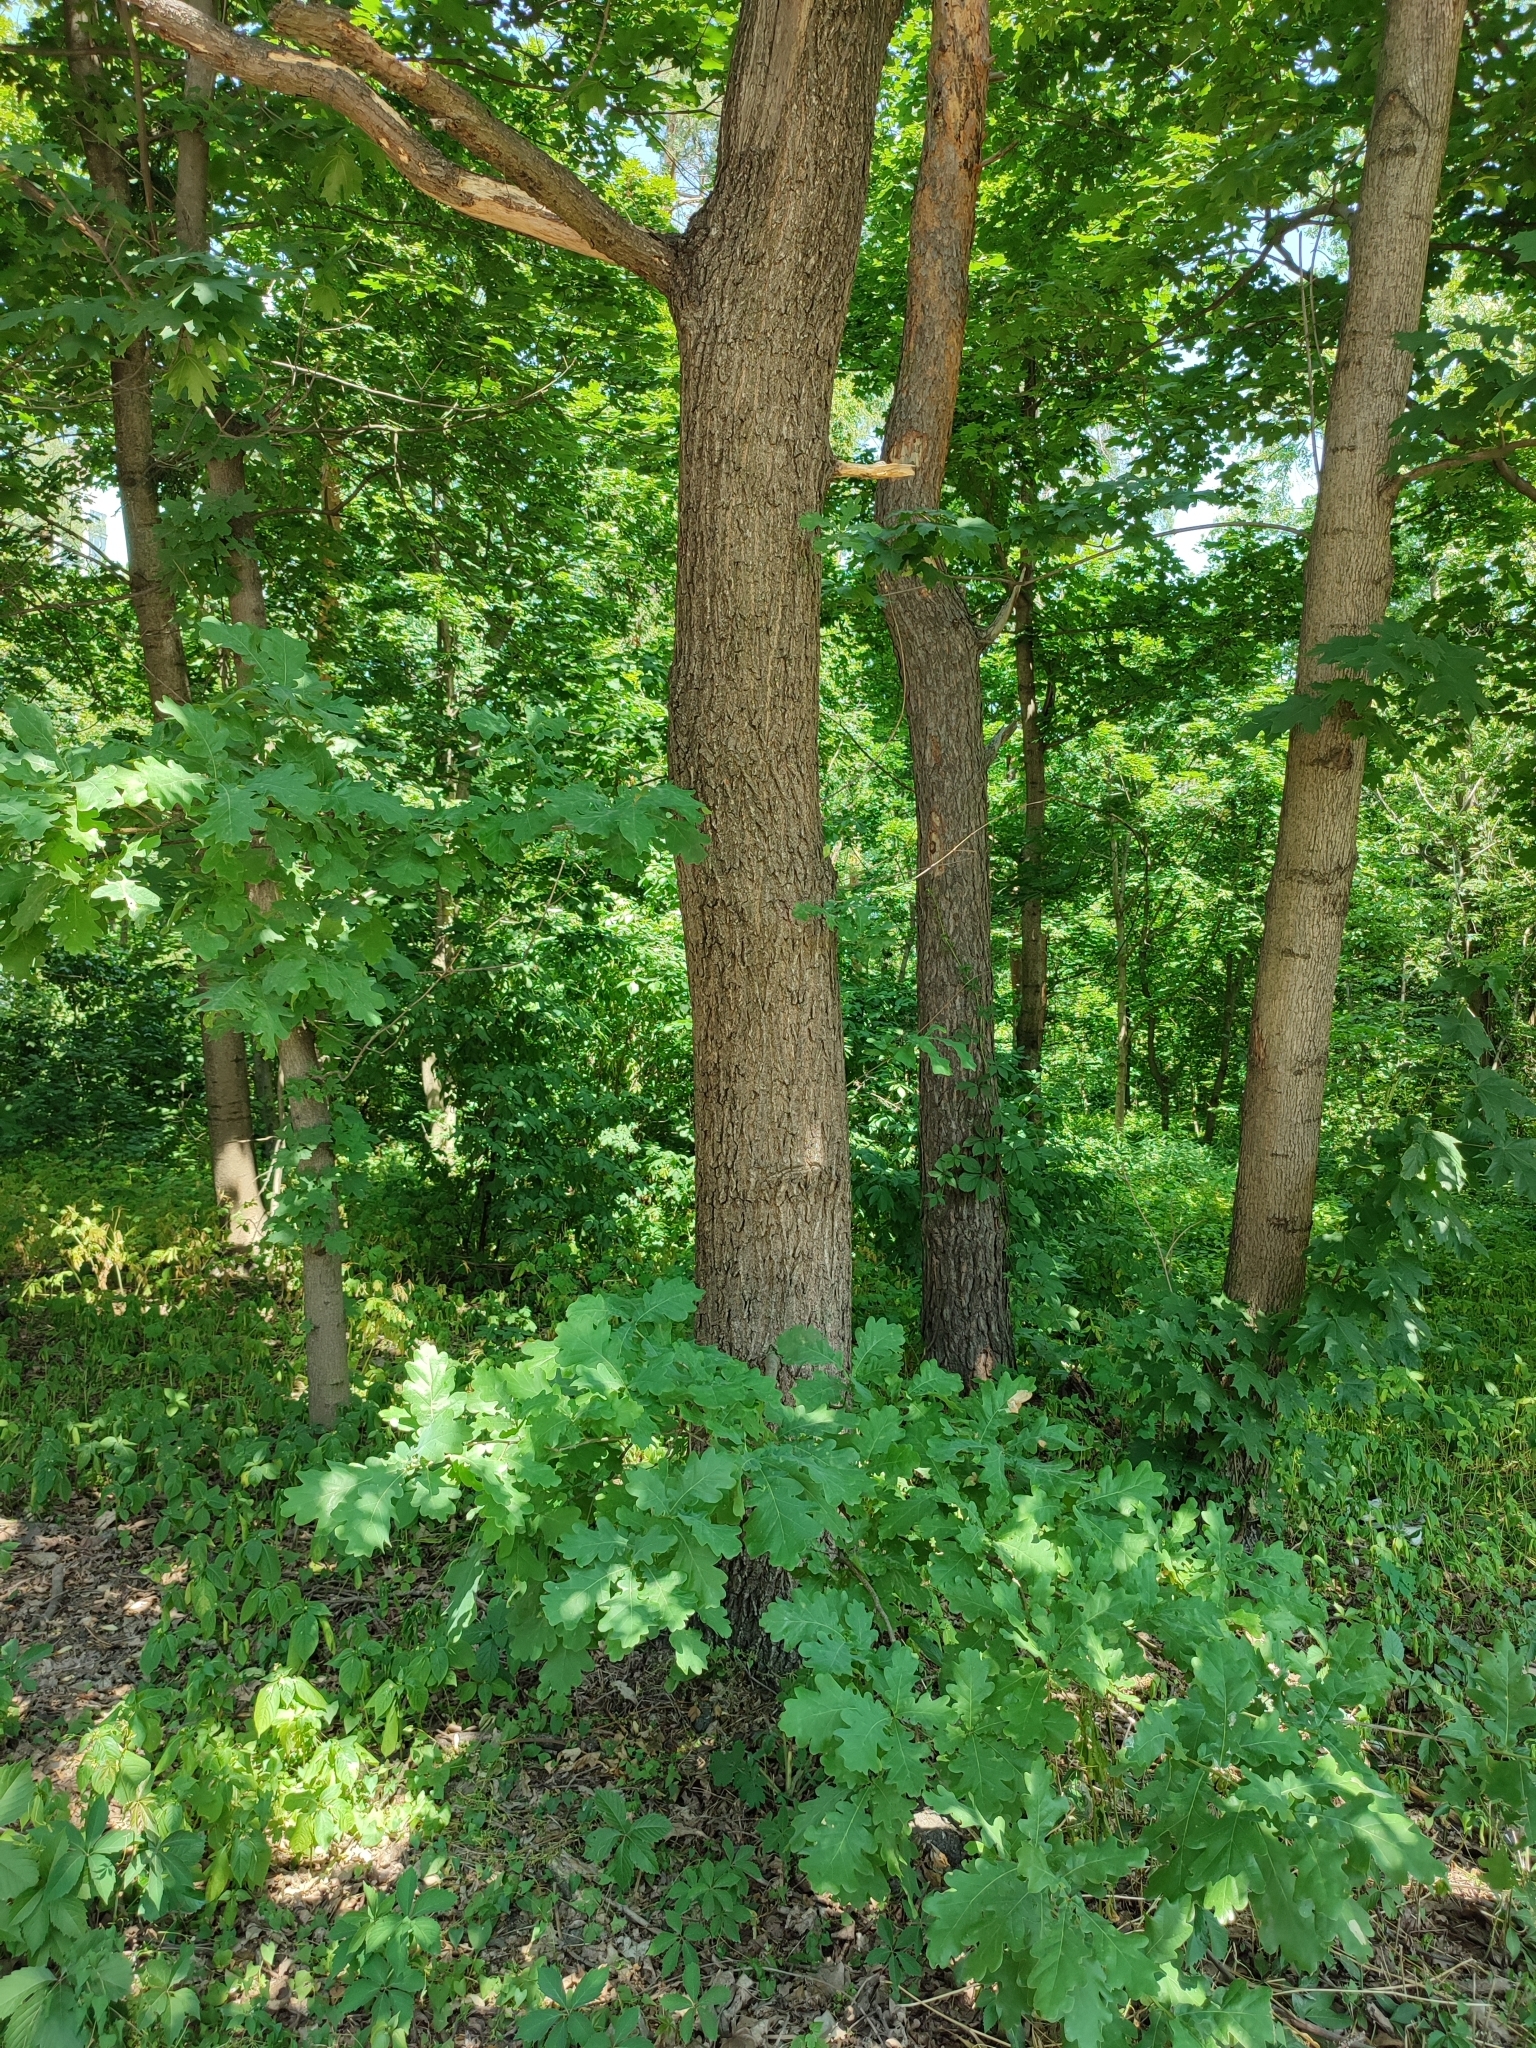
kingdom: Plantae
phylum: Tracheophyta
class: Magnoliopsida
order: Fagales
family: Fagaceae
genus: Quercus
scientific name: Quercus robur
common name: Pedunculate oak
